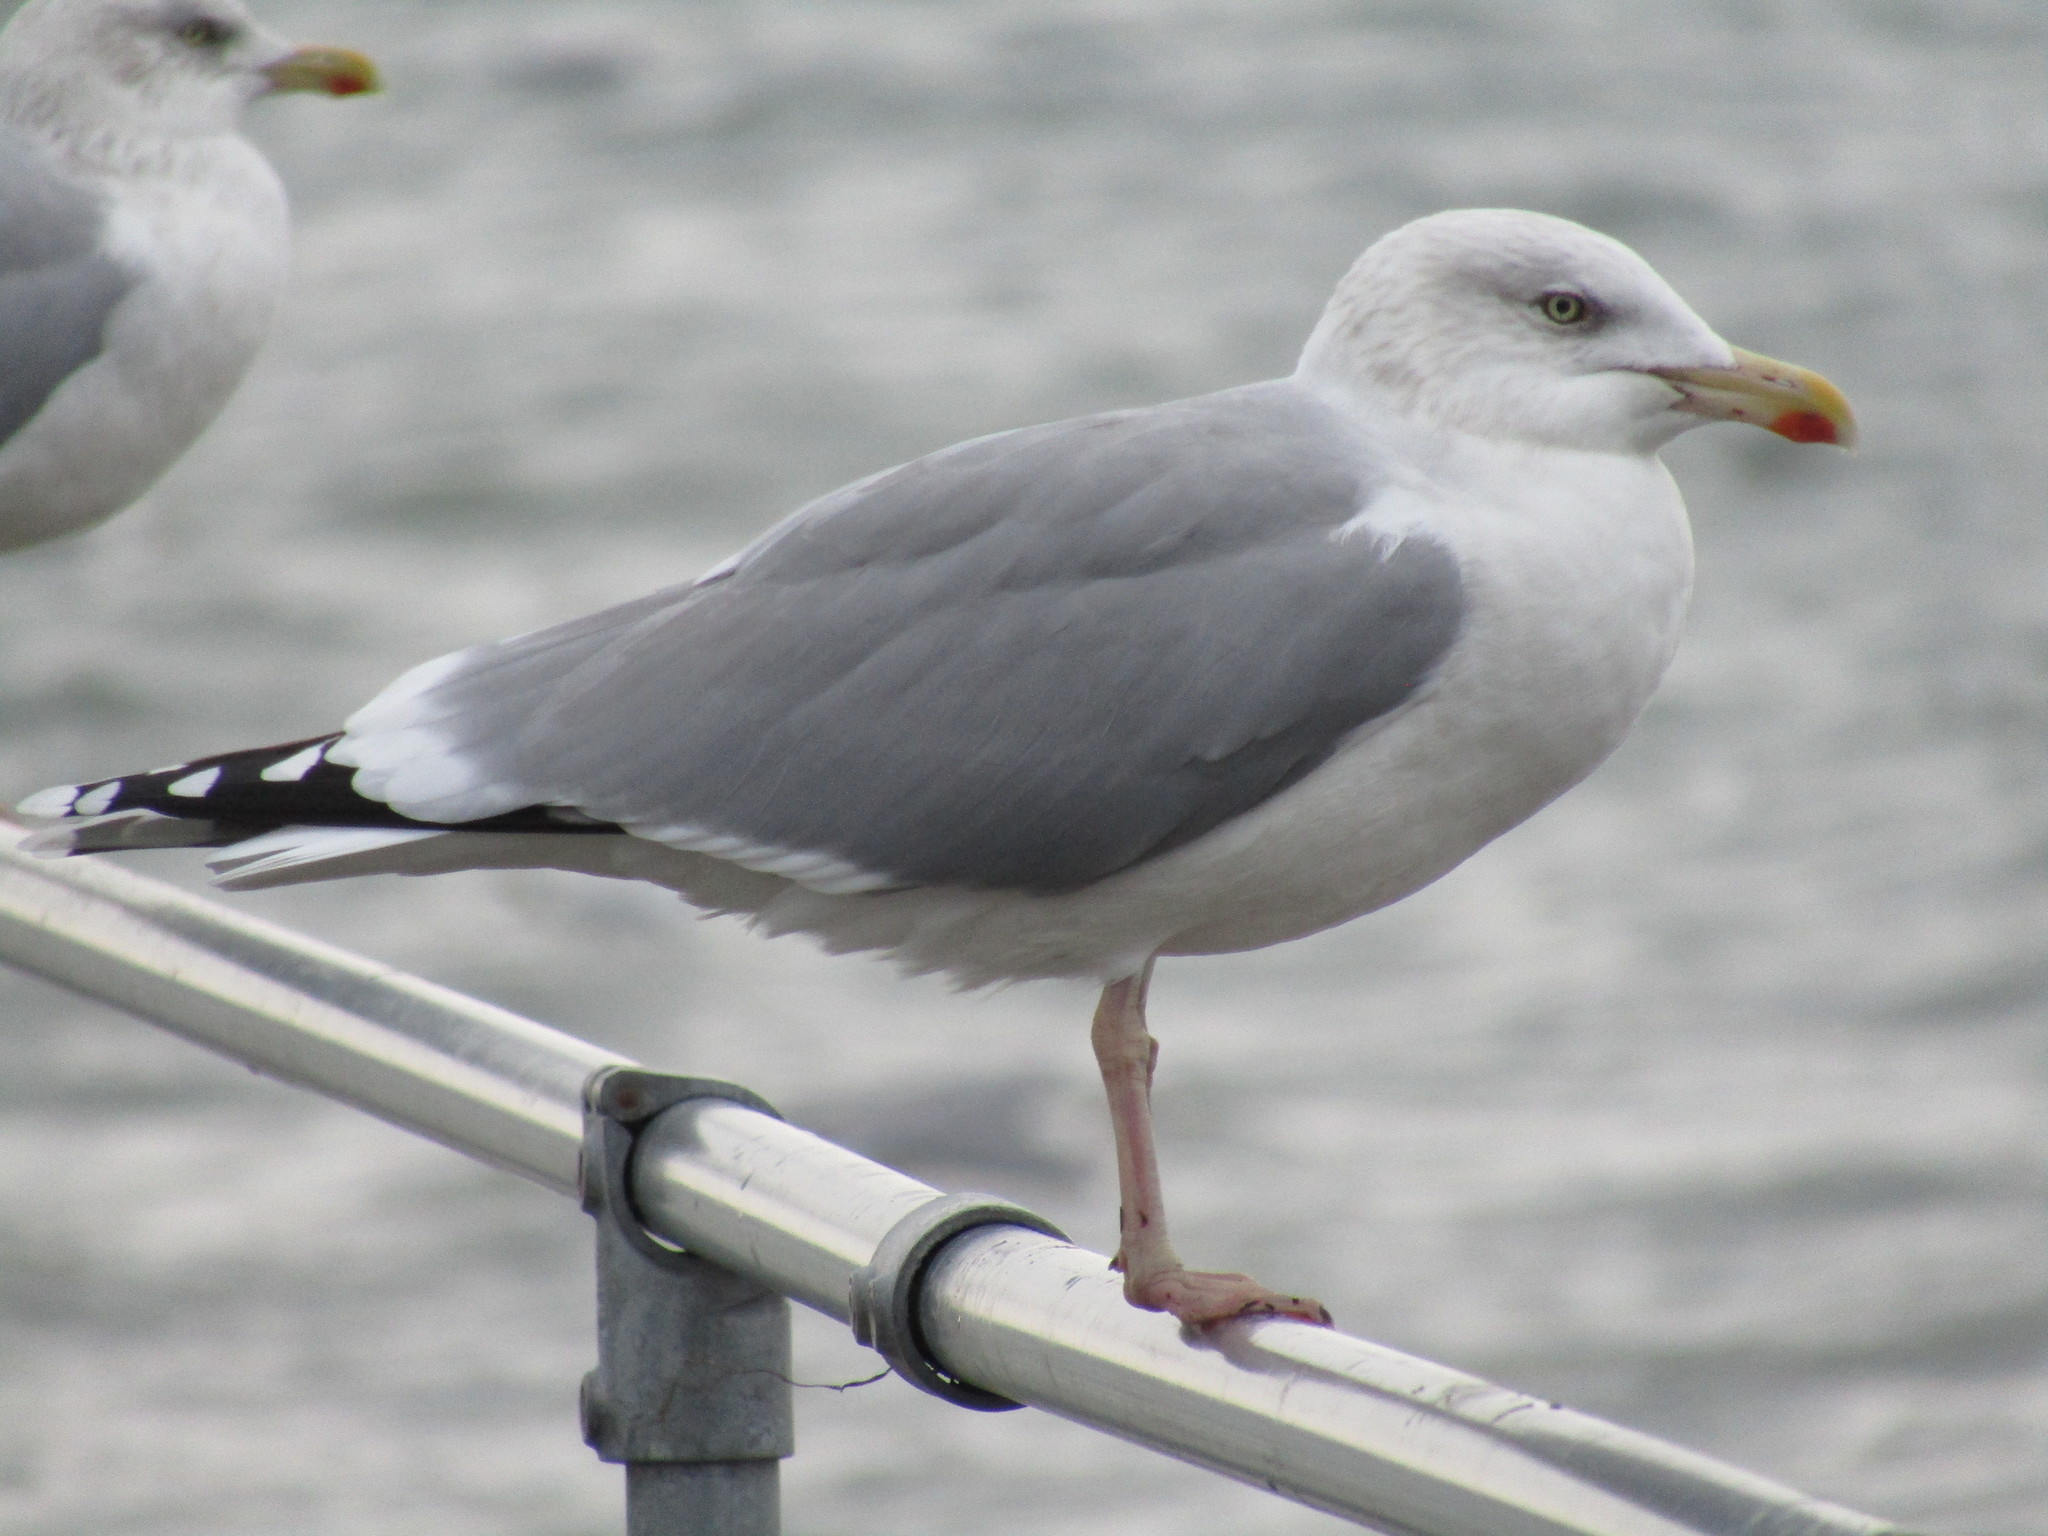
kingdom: Animalia
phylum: Chordata
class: Aves
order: Charadriiformes
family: Laridae
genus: Larus
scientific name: Larus argentatus
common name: Herring gull
